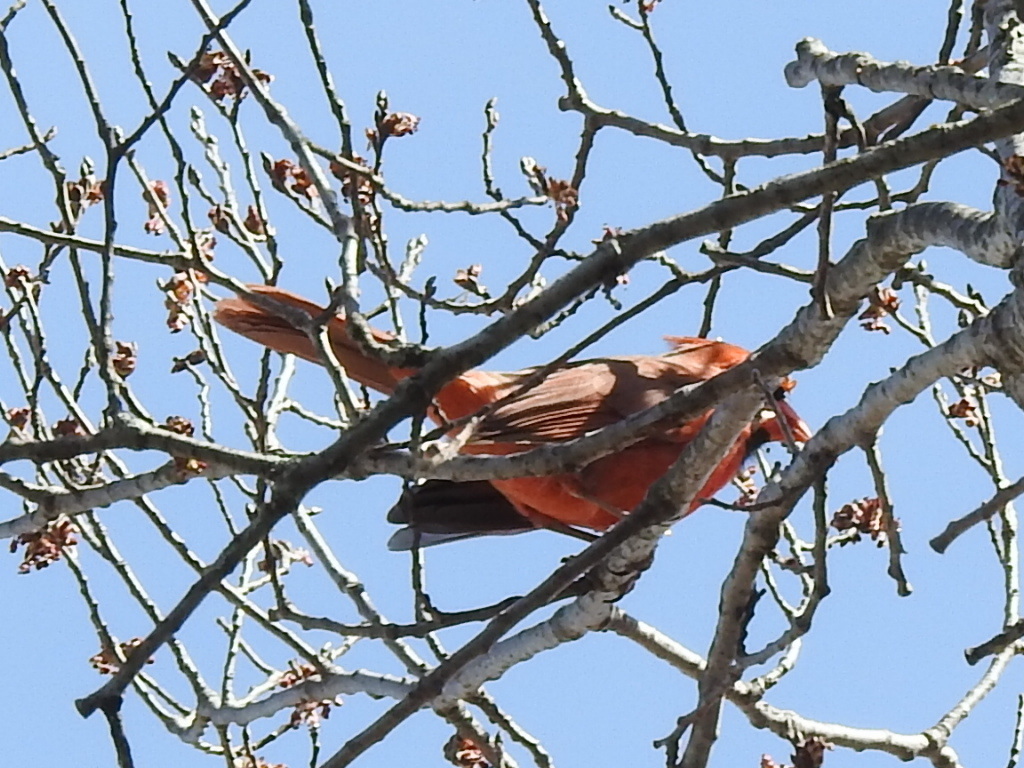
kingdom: Animalia
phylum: Chordata
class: Aves
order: Passeriformes
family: Cardinalidae
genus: Cardinalis
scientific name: Cardinalis cardinalis
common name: Northern cardinal
